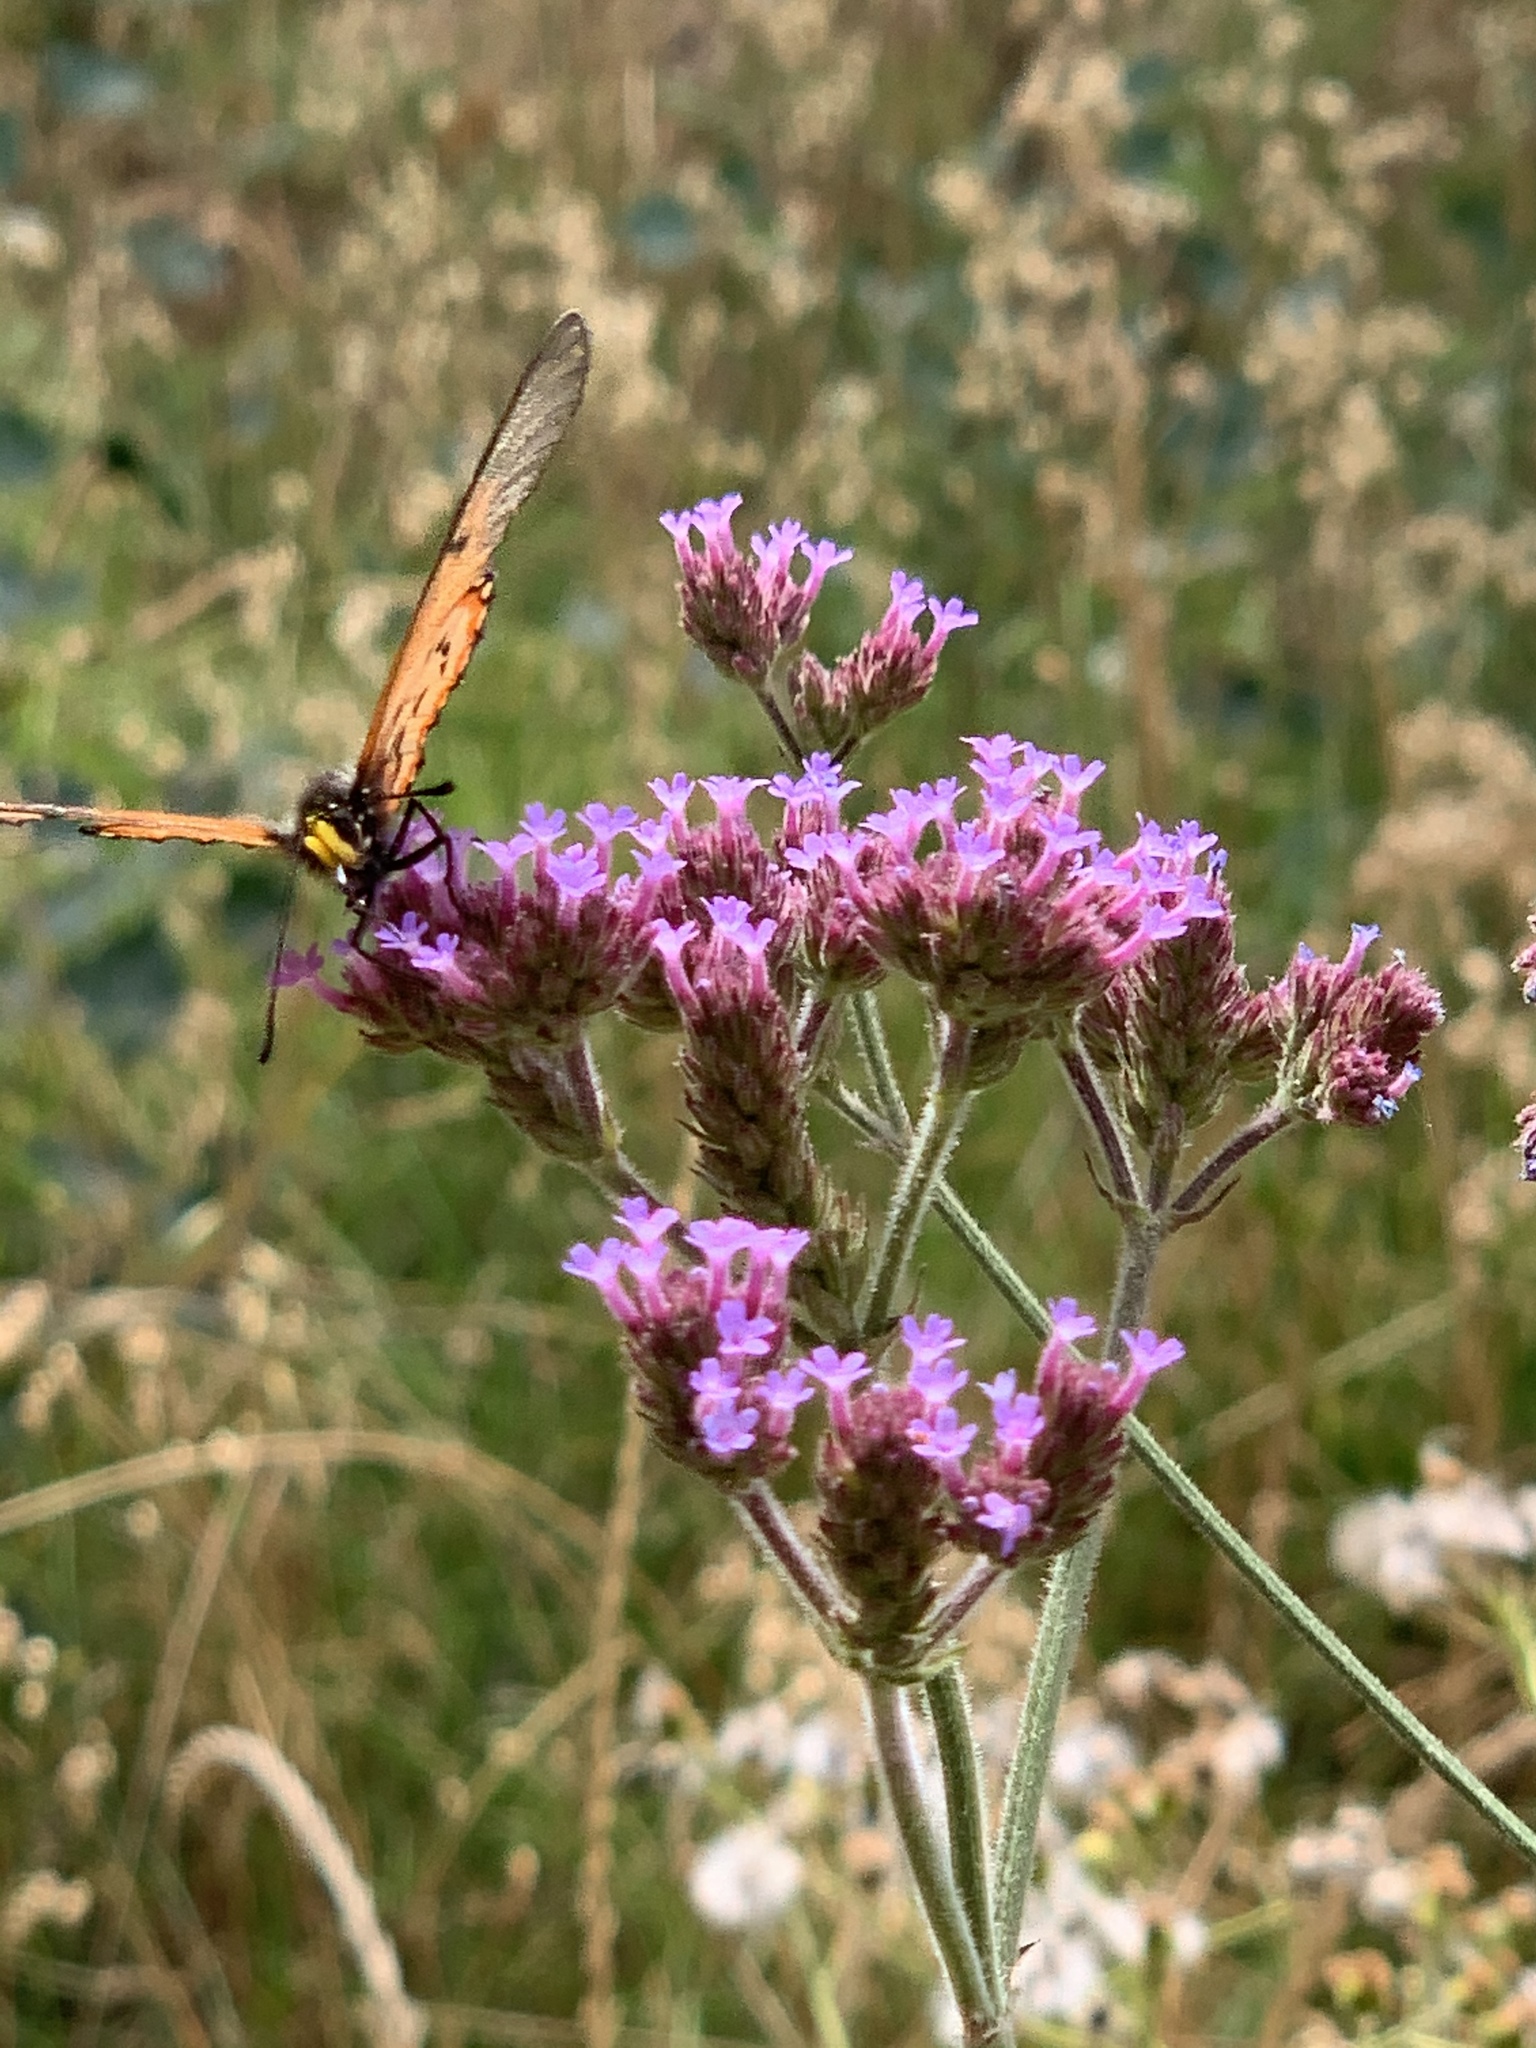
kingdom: Plantae
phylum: Tracheophyta
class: Magnoliopsida
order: Lamiales
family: Verbenaceae
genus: Verbena
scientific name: Verbena bonariensis
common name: Purpletop vervain
